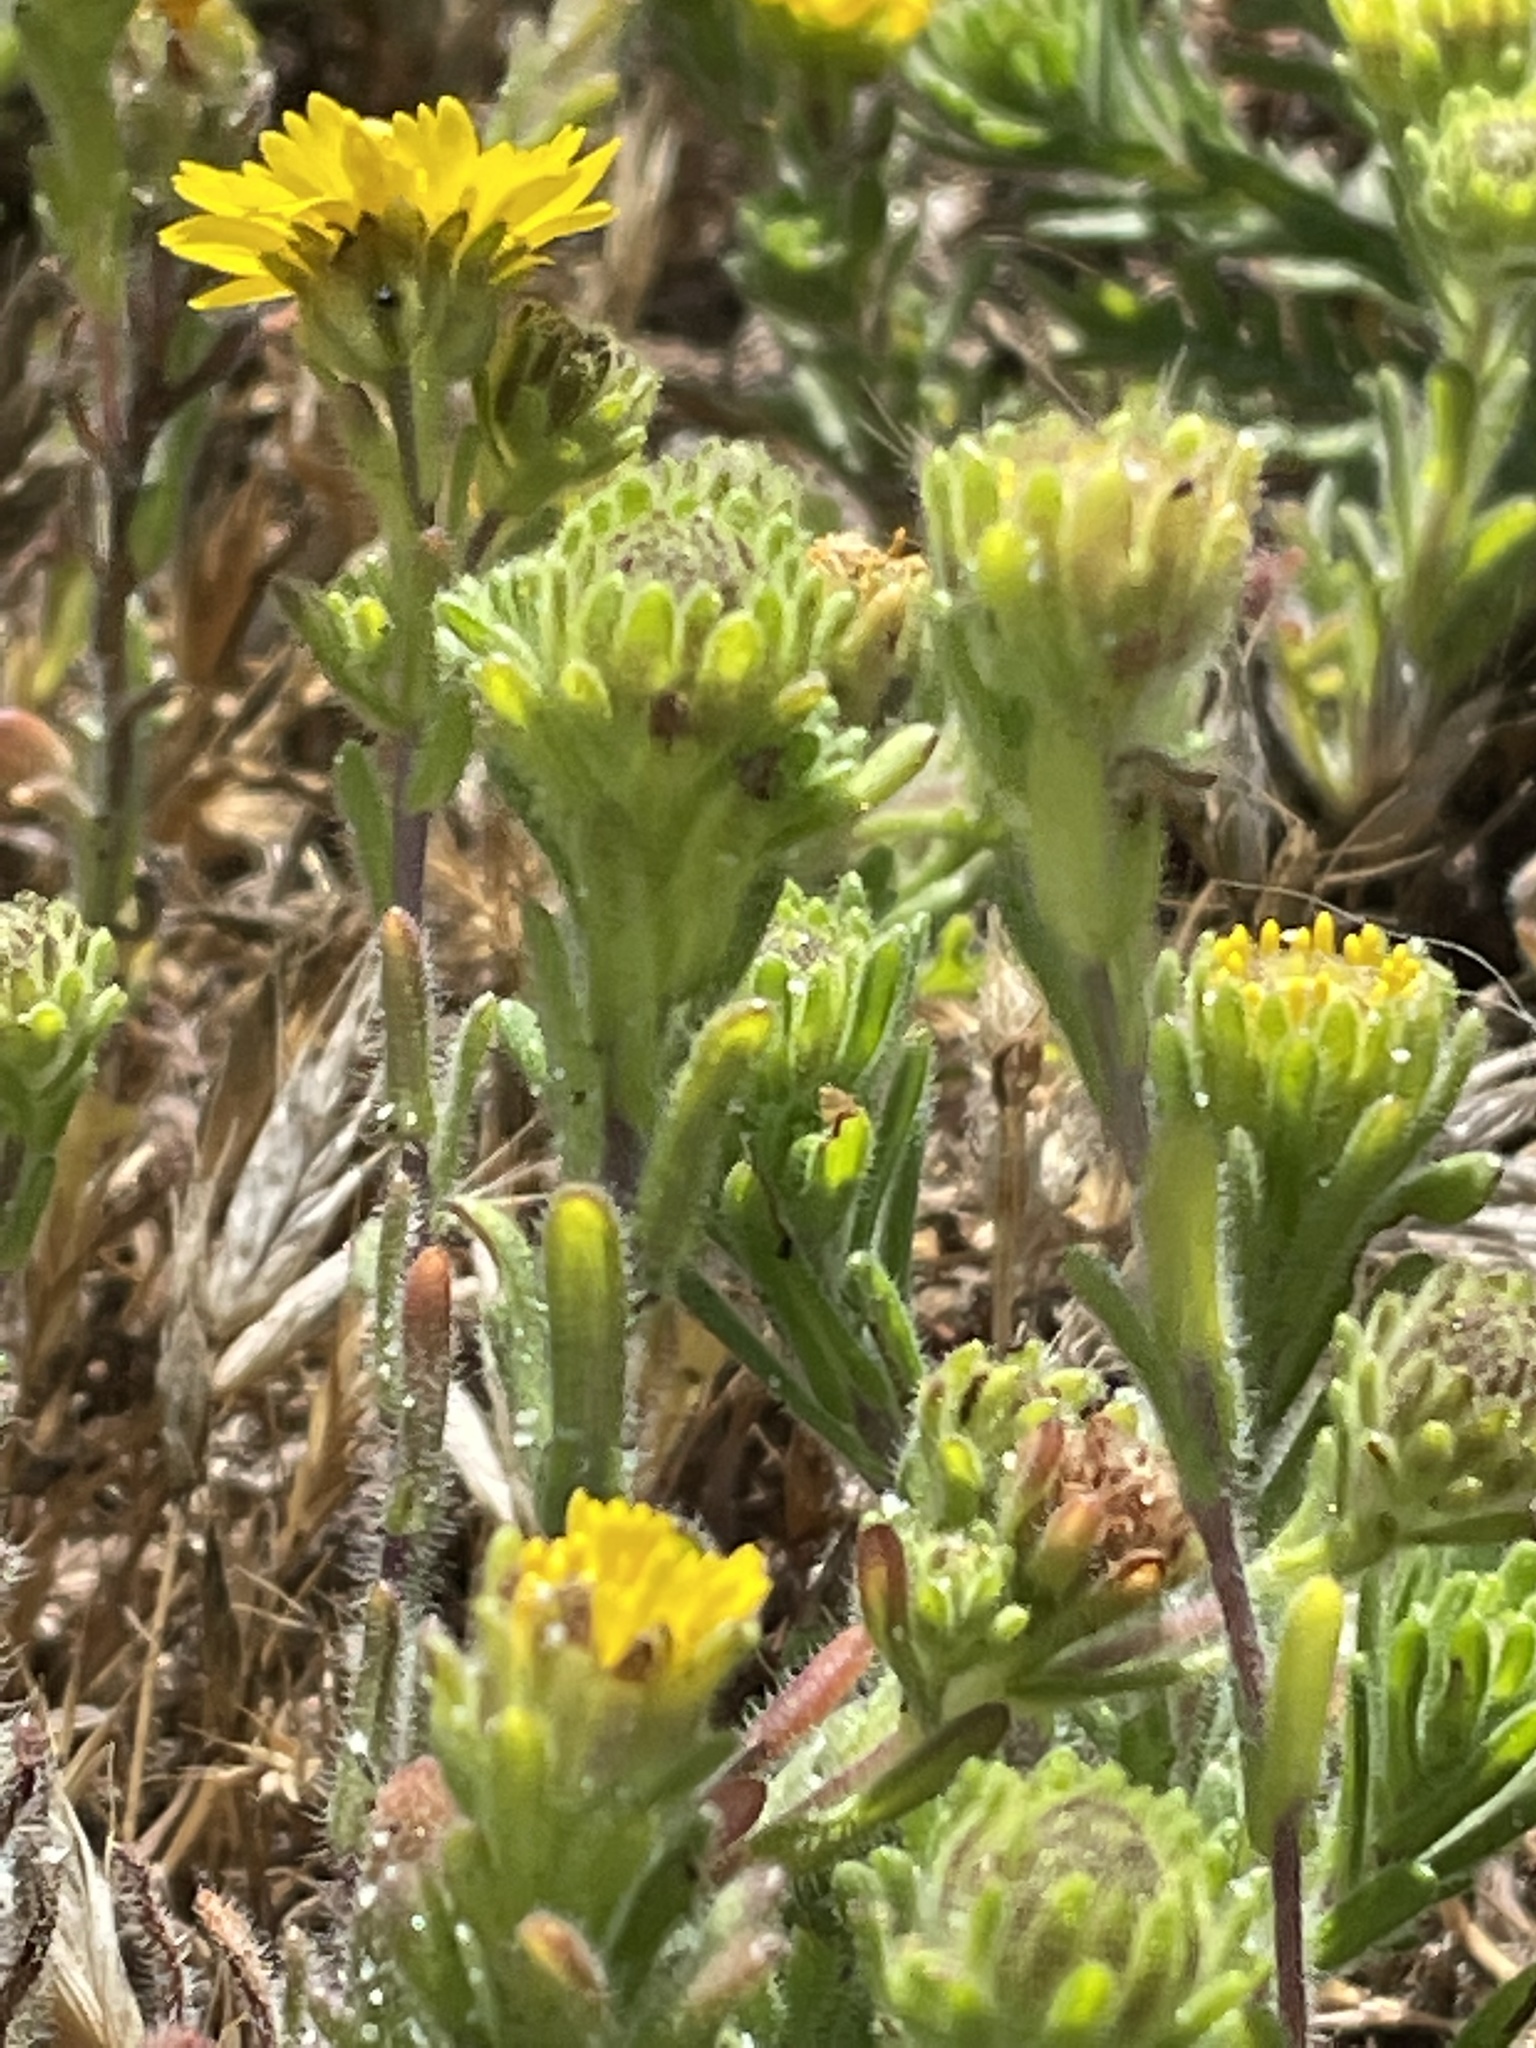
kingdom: Plantae
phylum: Tracheophyta
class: Magnoliopsida
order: Asterales
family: Asteraceae
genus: Deinandra
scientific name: Deinandra corymbosa
